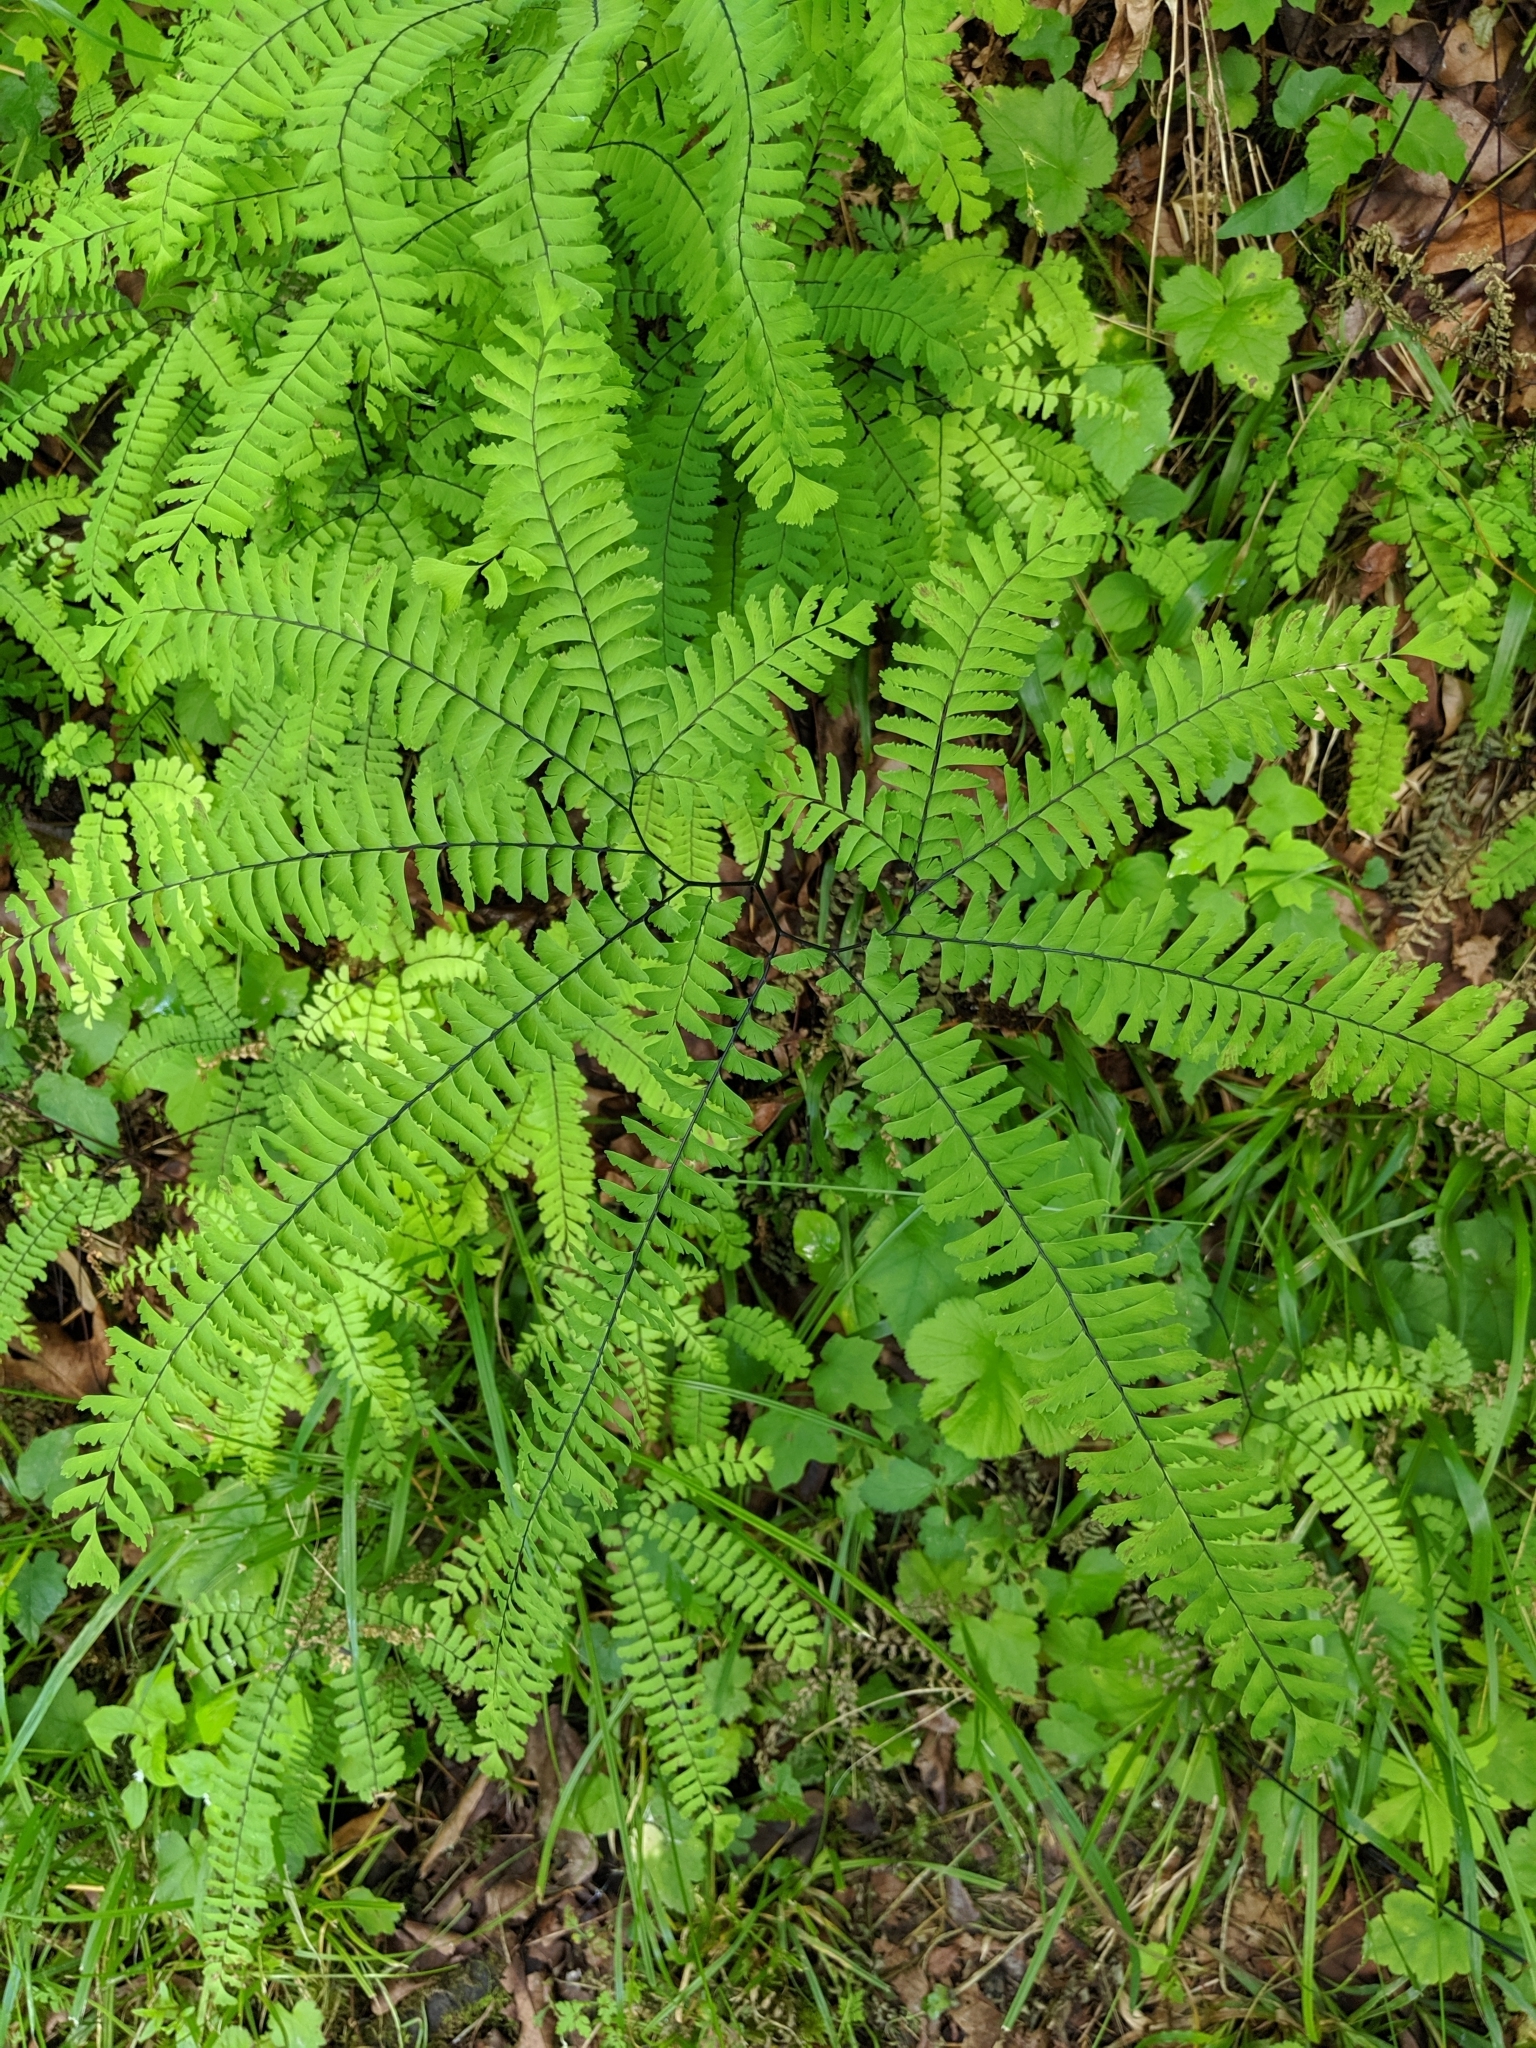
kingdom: Plantae
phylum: Tracheophyta
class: Polypodiopsida
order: Polypodiales
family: Pteridaceae
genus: Adiantum
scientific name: Adiantum aleuticum
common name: Aleutian maidenhair fern
